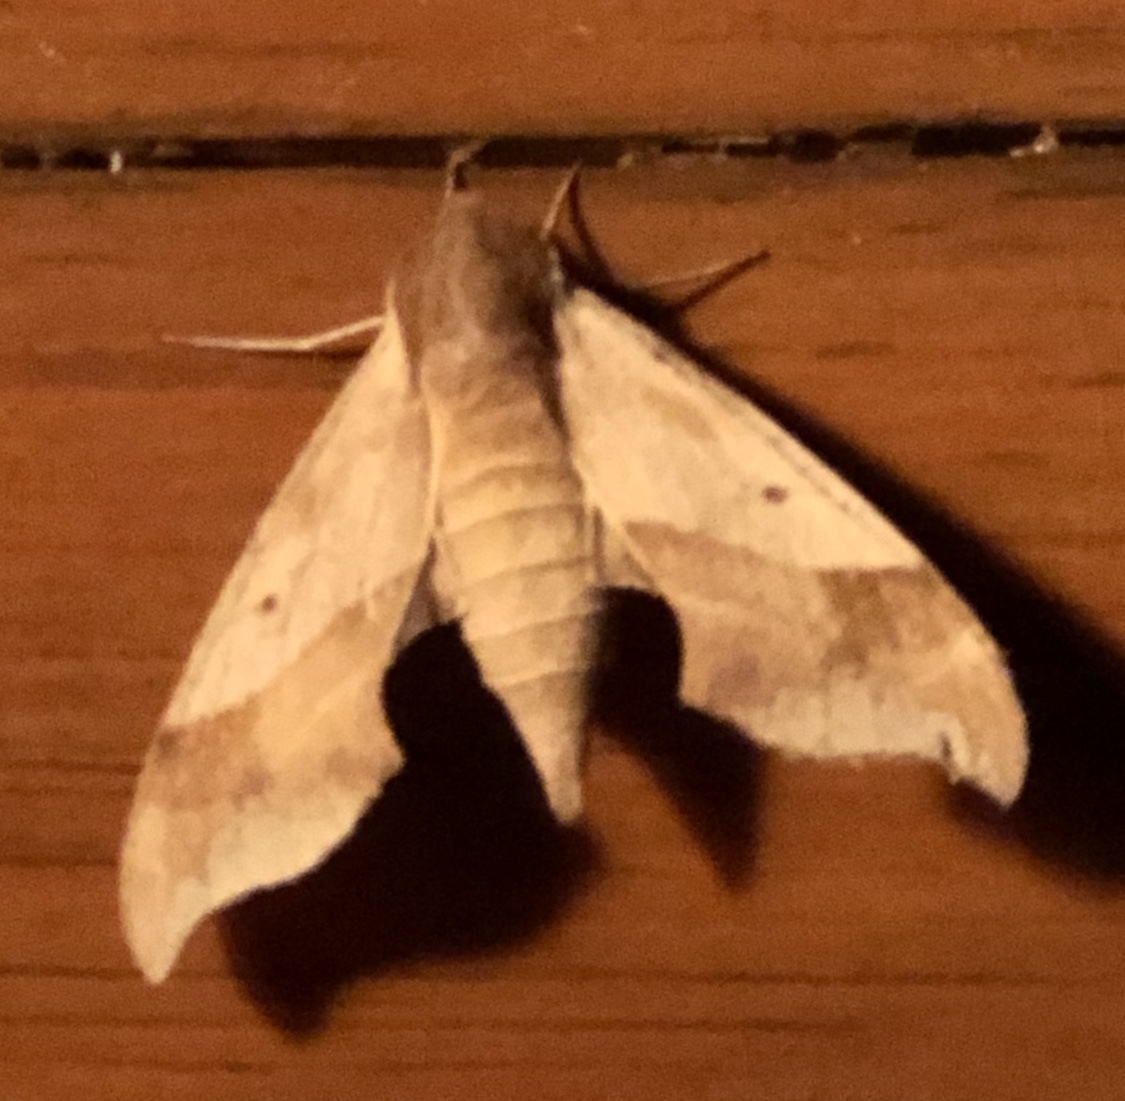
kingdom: Animalia
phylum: Arthropoda
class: Insecta
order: Lepidoptera
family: Sphingidae
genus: Darapsa
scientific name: Darapsa myron
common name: Hog sphinx
